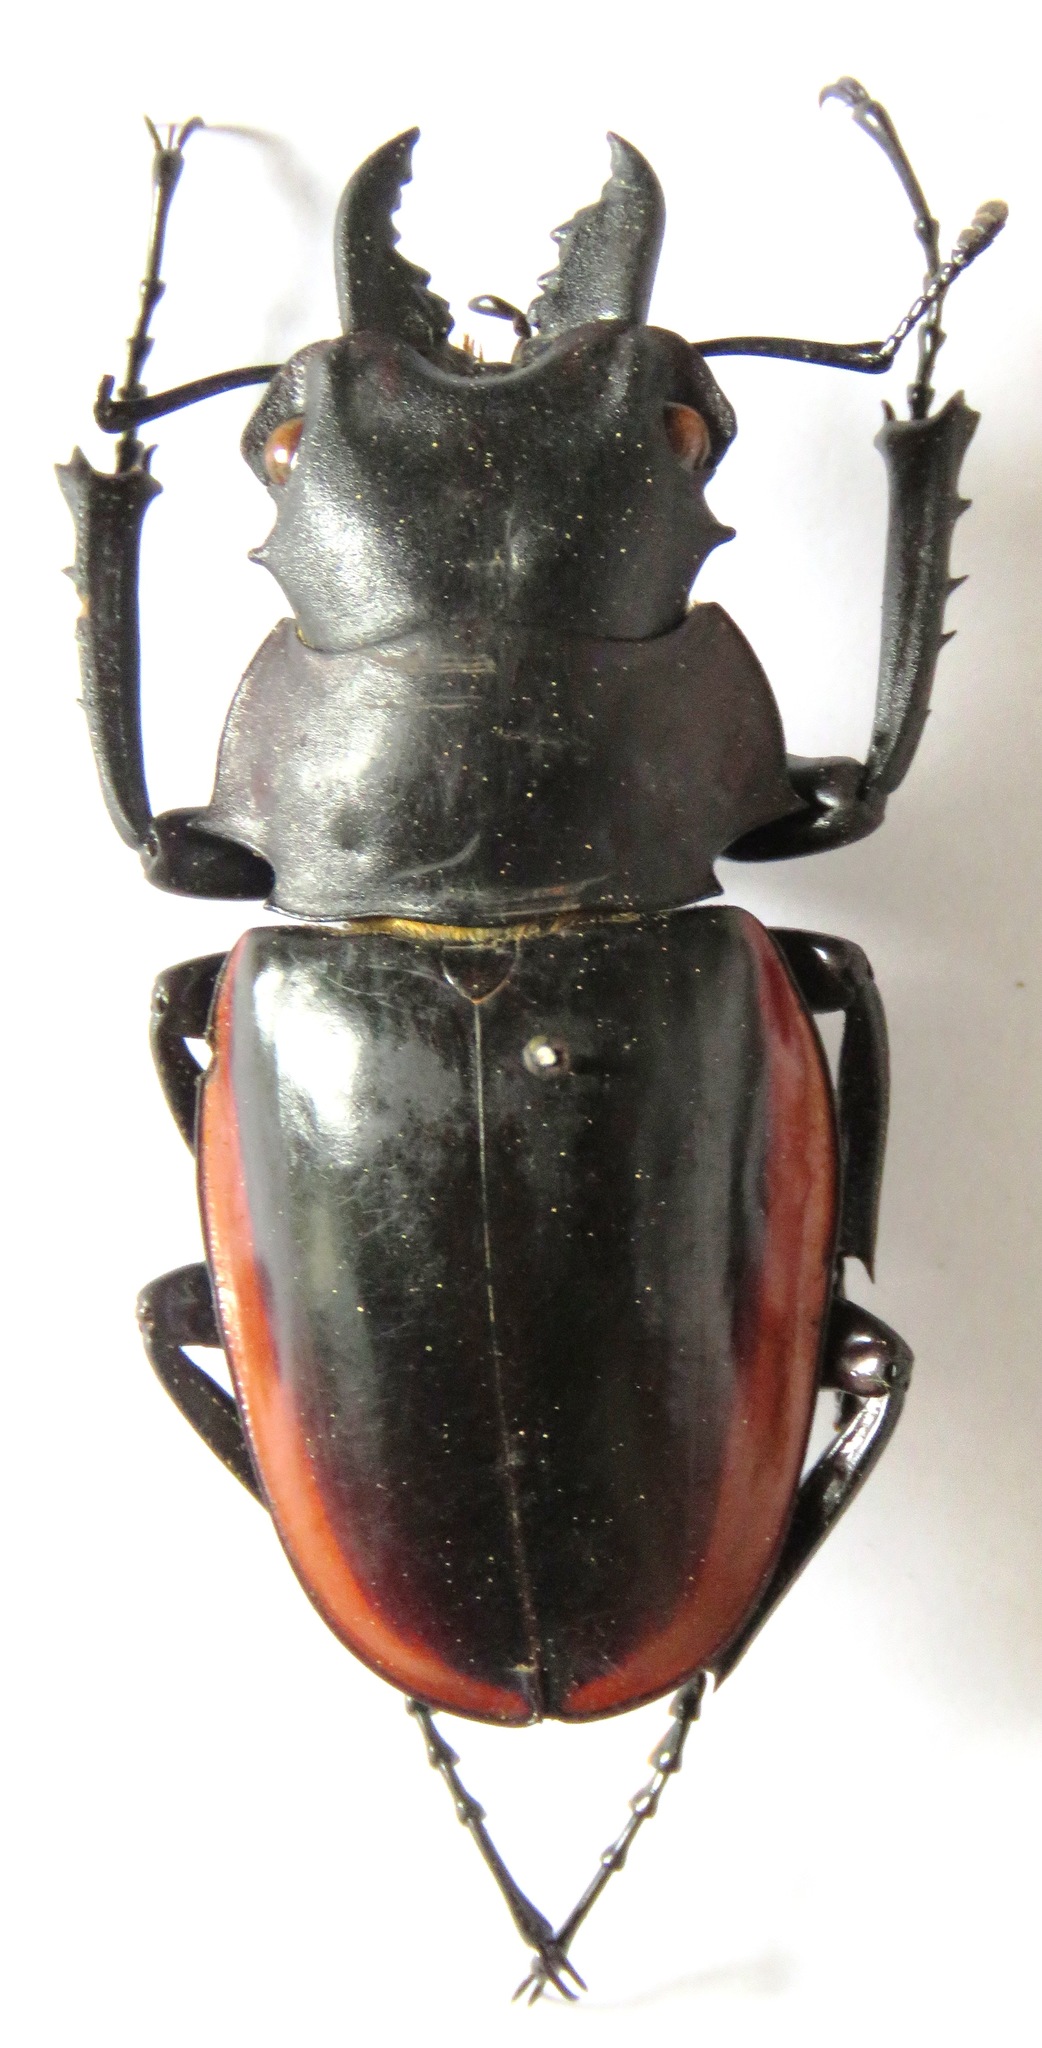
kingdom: Animalia
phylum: Arthropoda
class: Insecta
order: Coleoptera
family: Lucanidae
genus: Odontolabis
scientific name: Odontolabis cuvera
